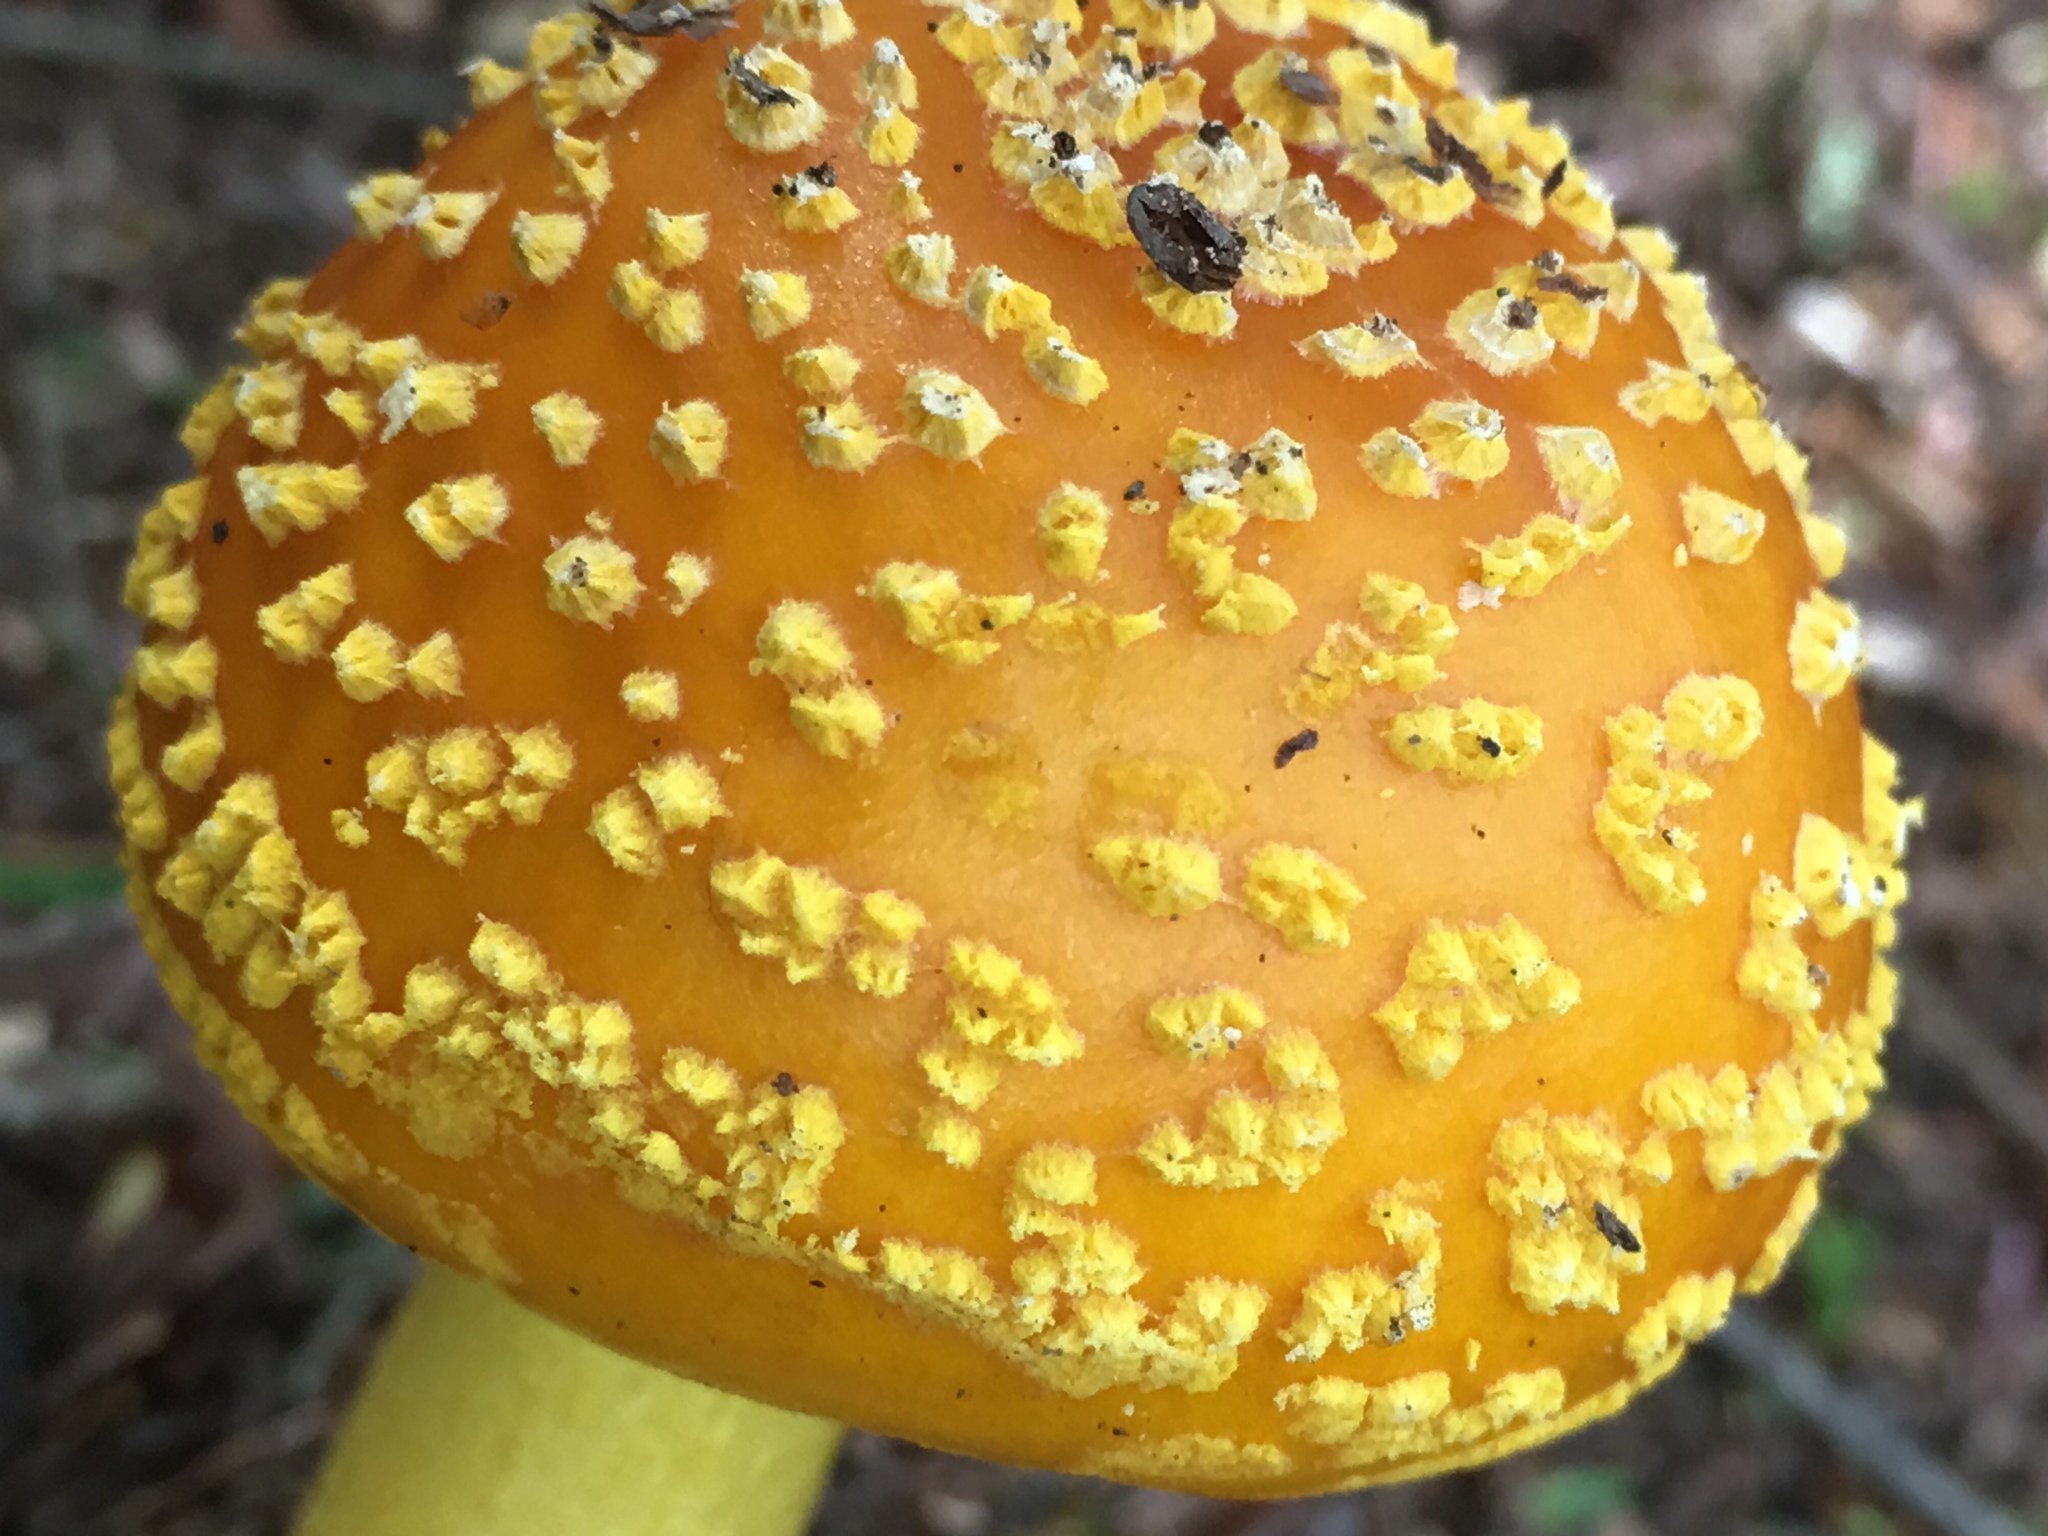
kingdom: Fungi
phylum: Basidiomycota
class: Agaricomycetes
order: Agaricales
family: Amanitaceae
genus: Amanita
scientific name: Amanita flavoconia
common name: Yellow patches
